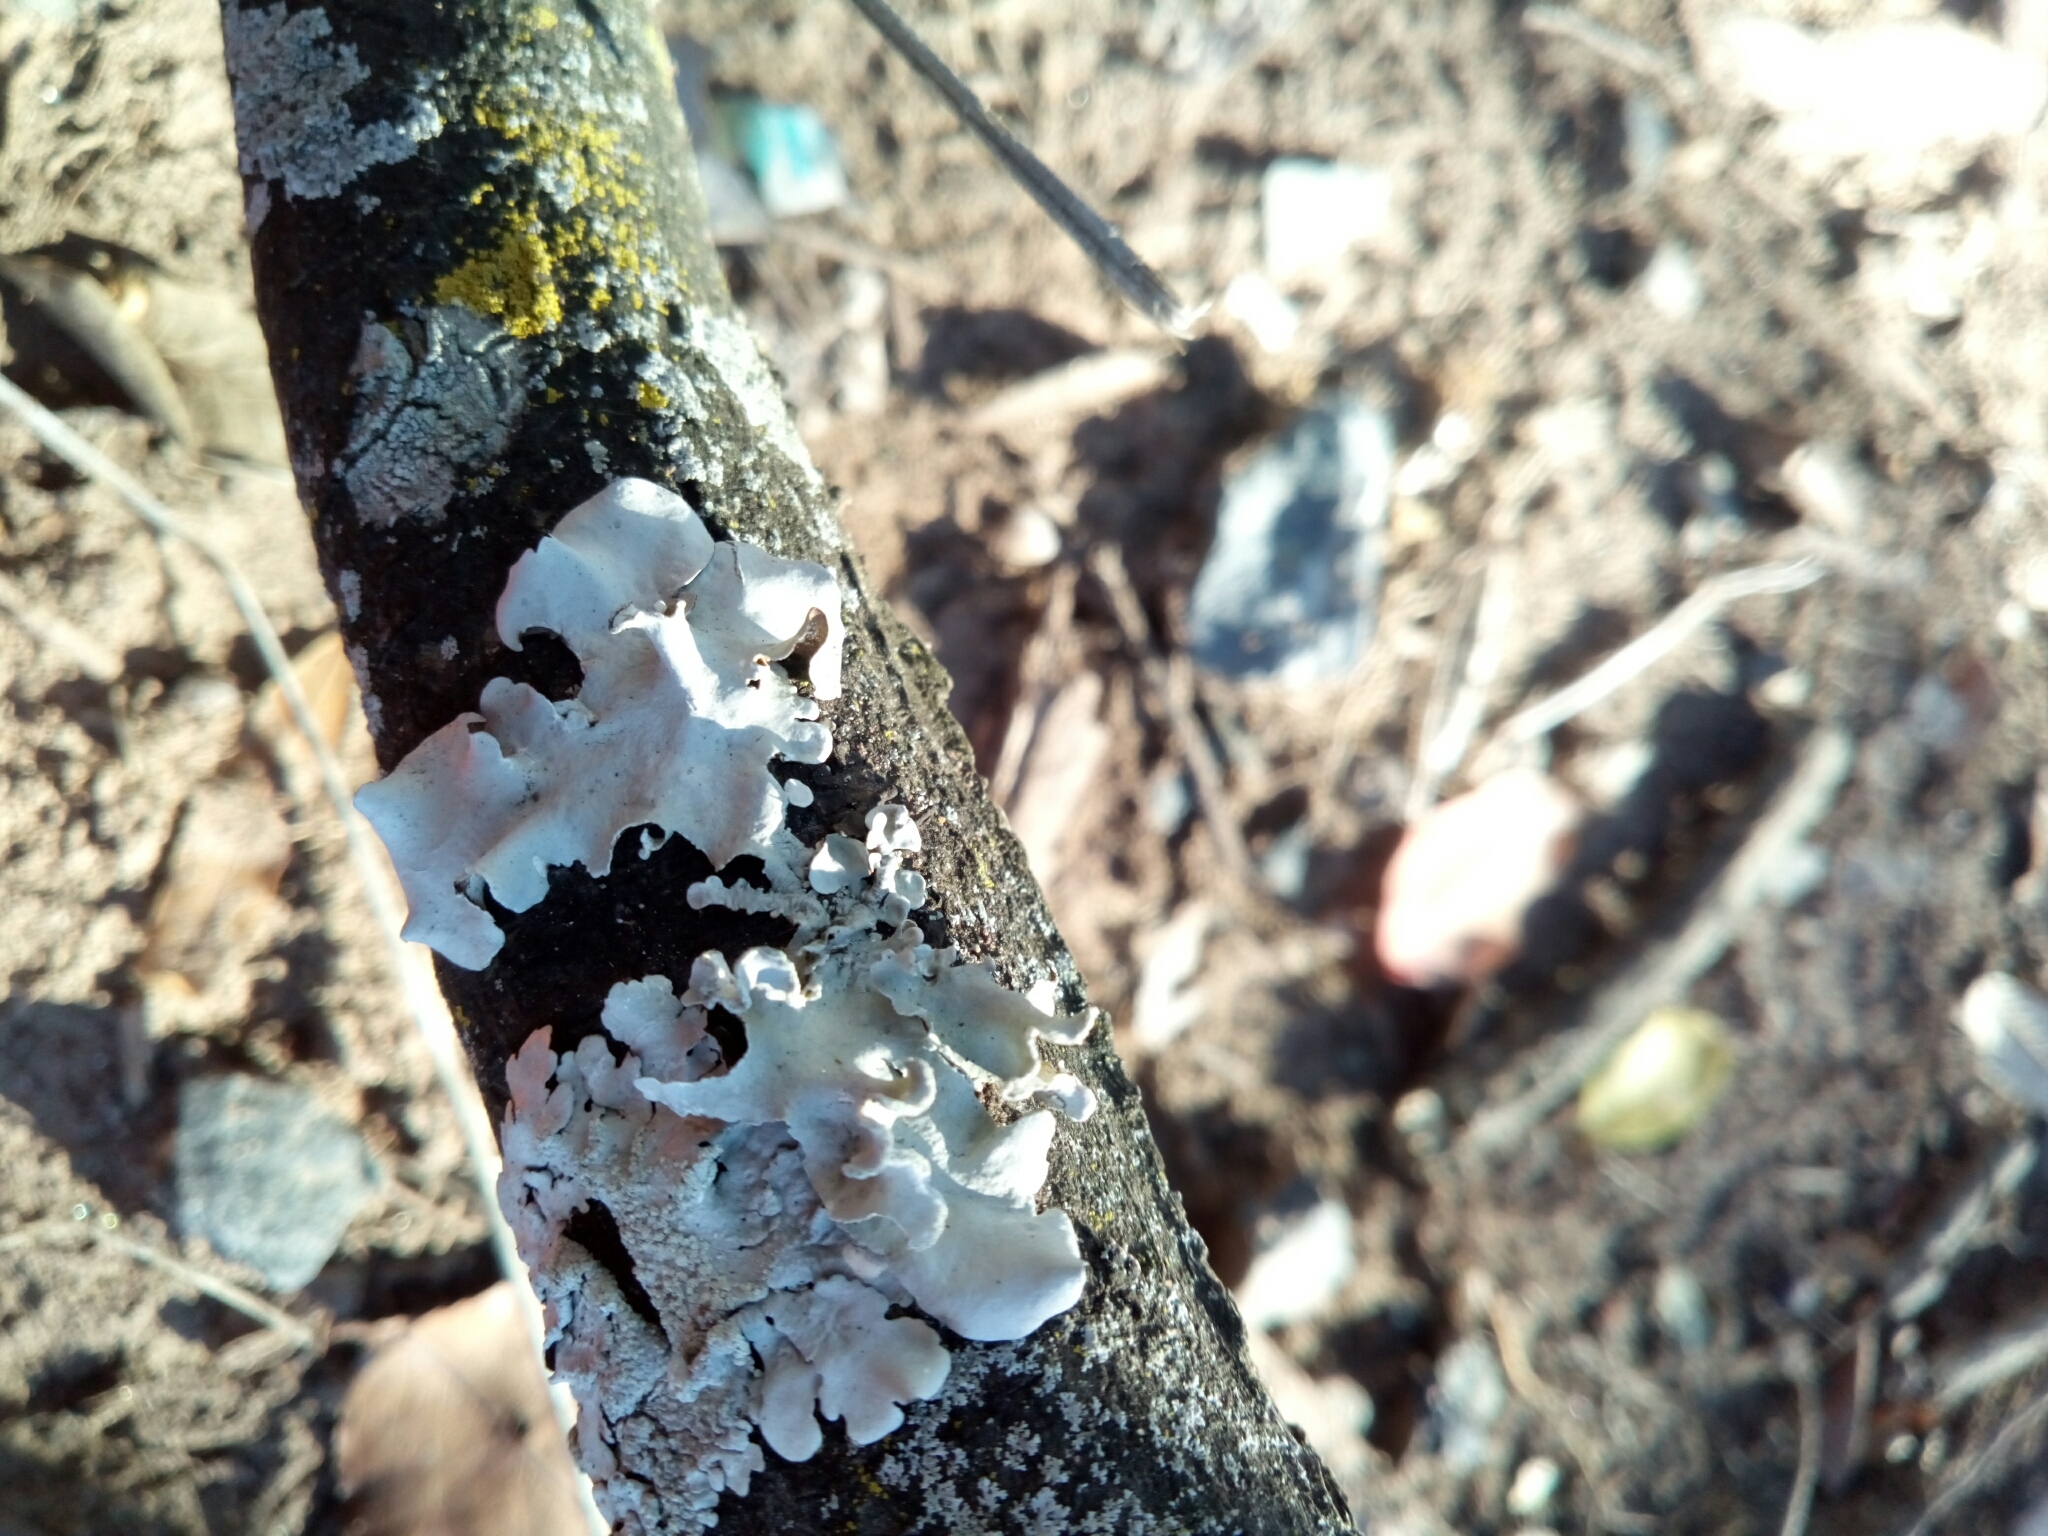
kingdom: Fungi
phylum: Ascomycota
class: Lecanoromycetes
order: Lecanorales
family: Parmeliaceae
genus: Parmotrema
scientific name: Parmotrema austrosinense
